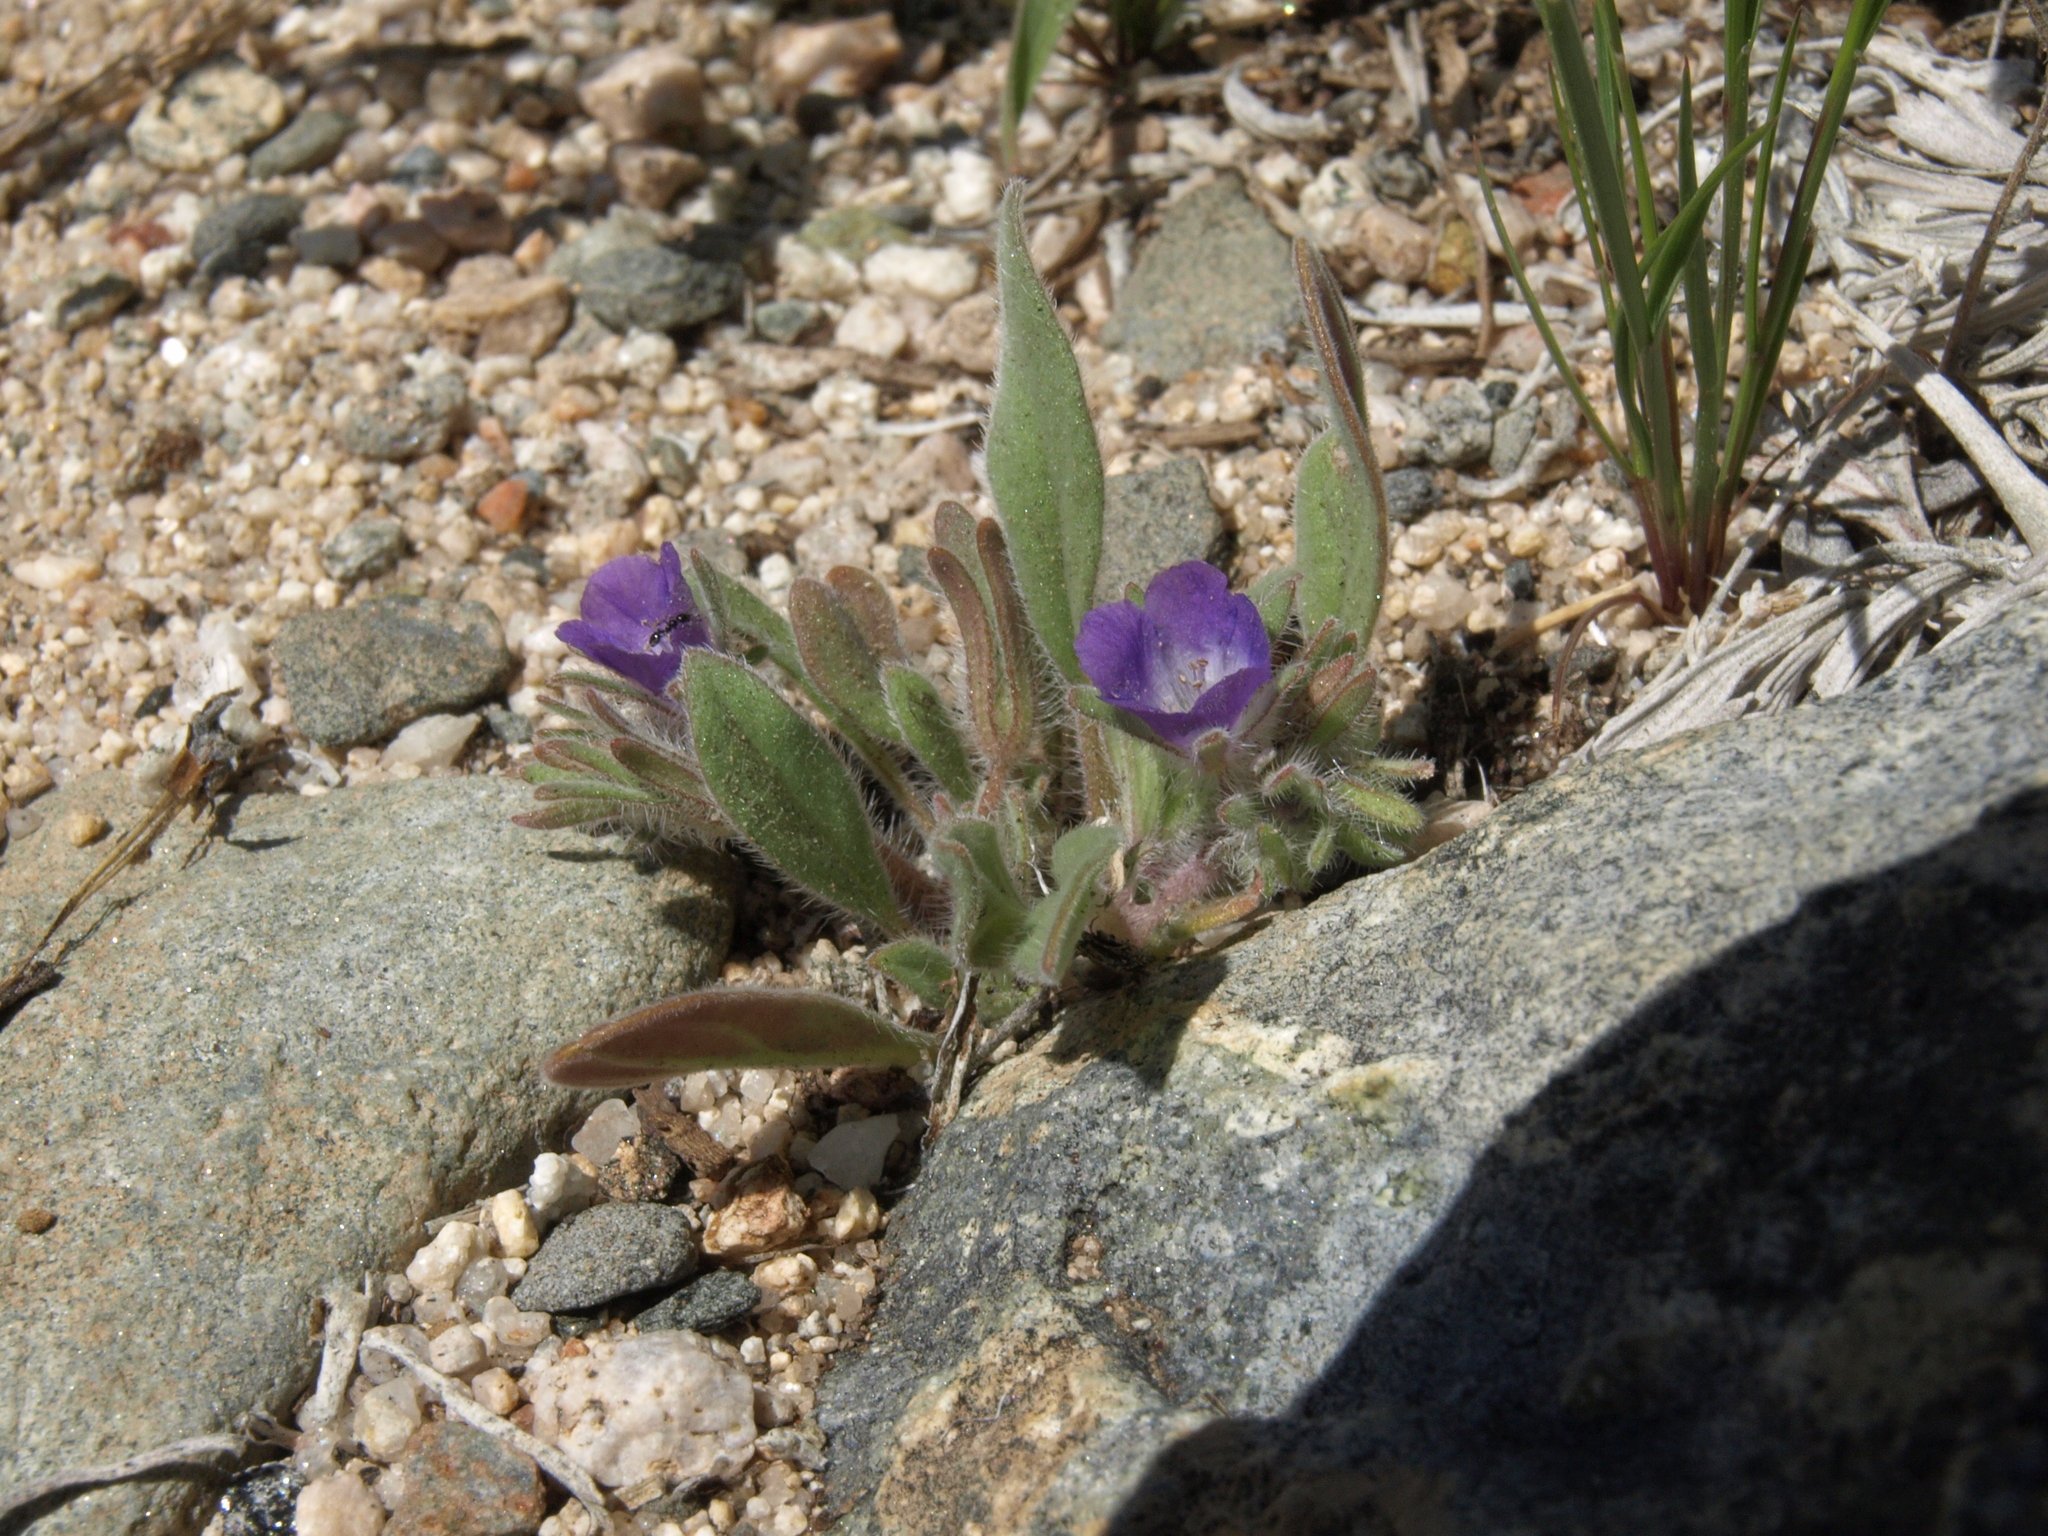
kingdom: Plantae
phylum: Tracheophyta
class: Magnoliopsida
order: Boraginales
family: Hydrophyllaceae
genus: Phacelia
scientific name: Phacelia curvipes
